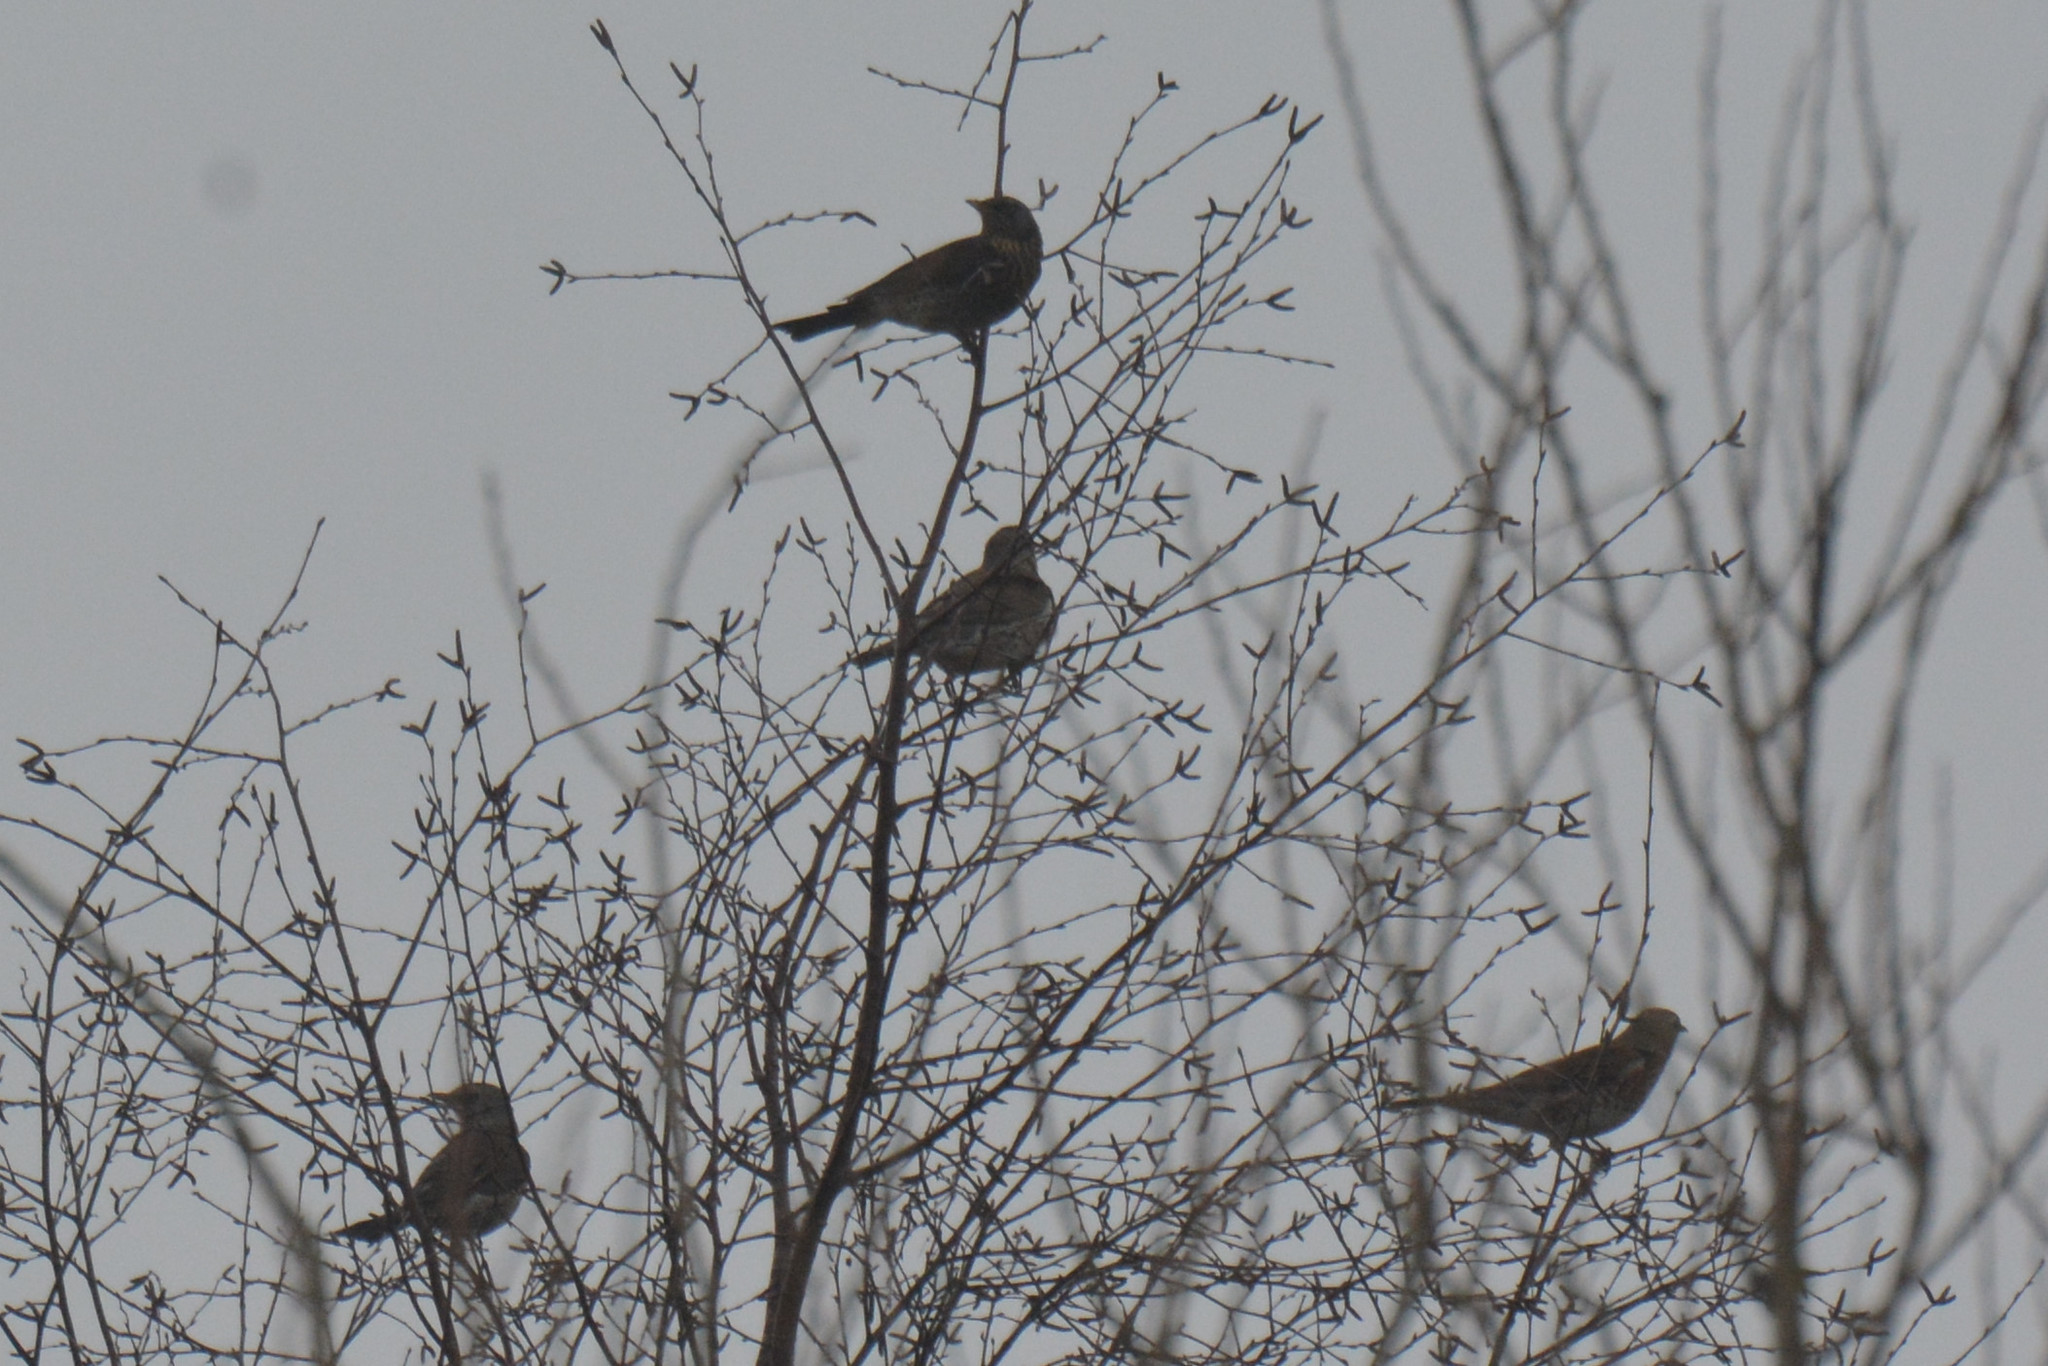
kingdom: Animalia
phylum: Chordata
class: Aves
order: Passeriformes
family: Turdidae
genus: Turdus
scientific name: Turdus pilaris
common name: Fieldfare
